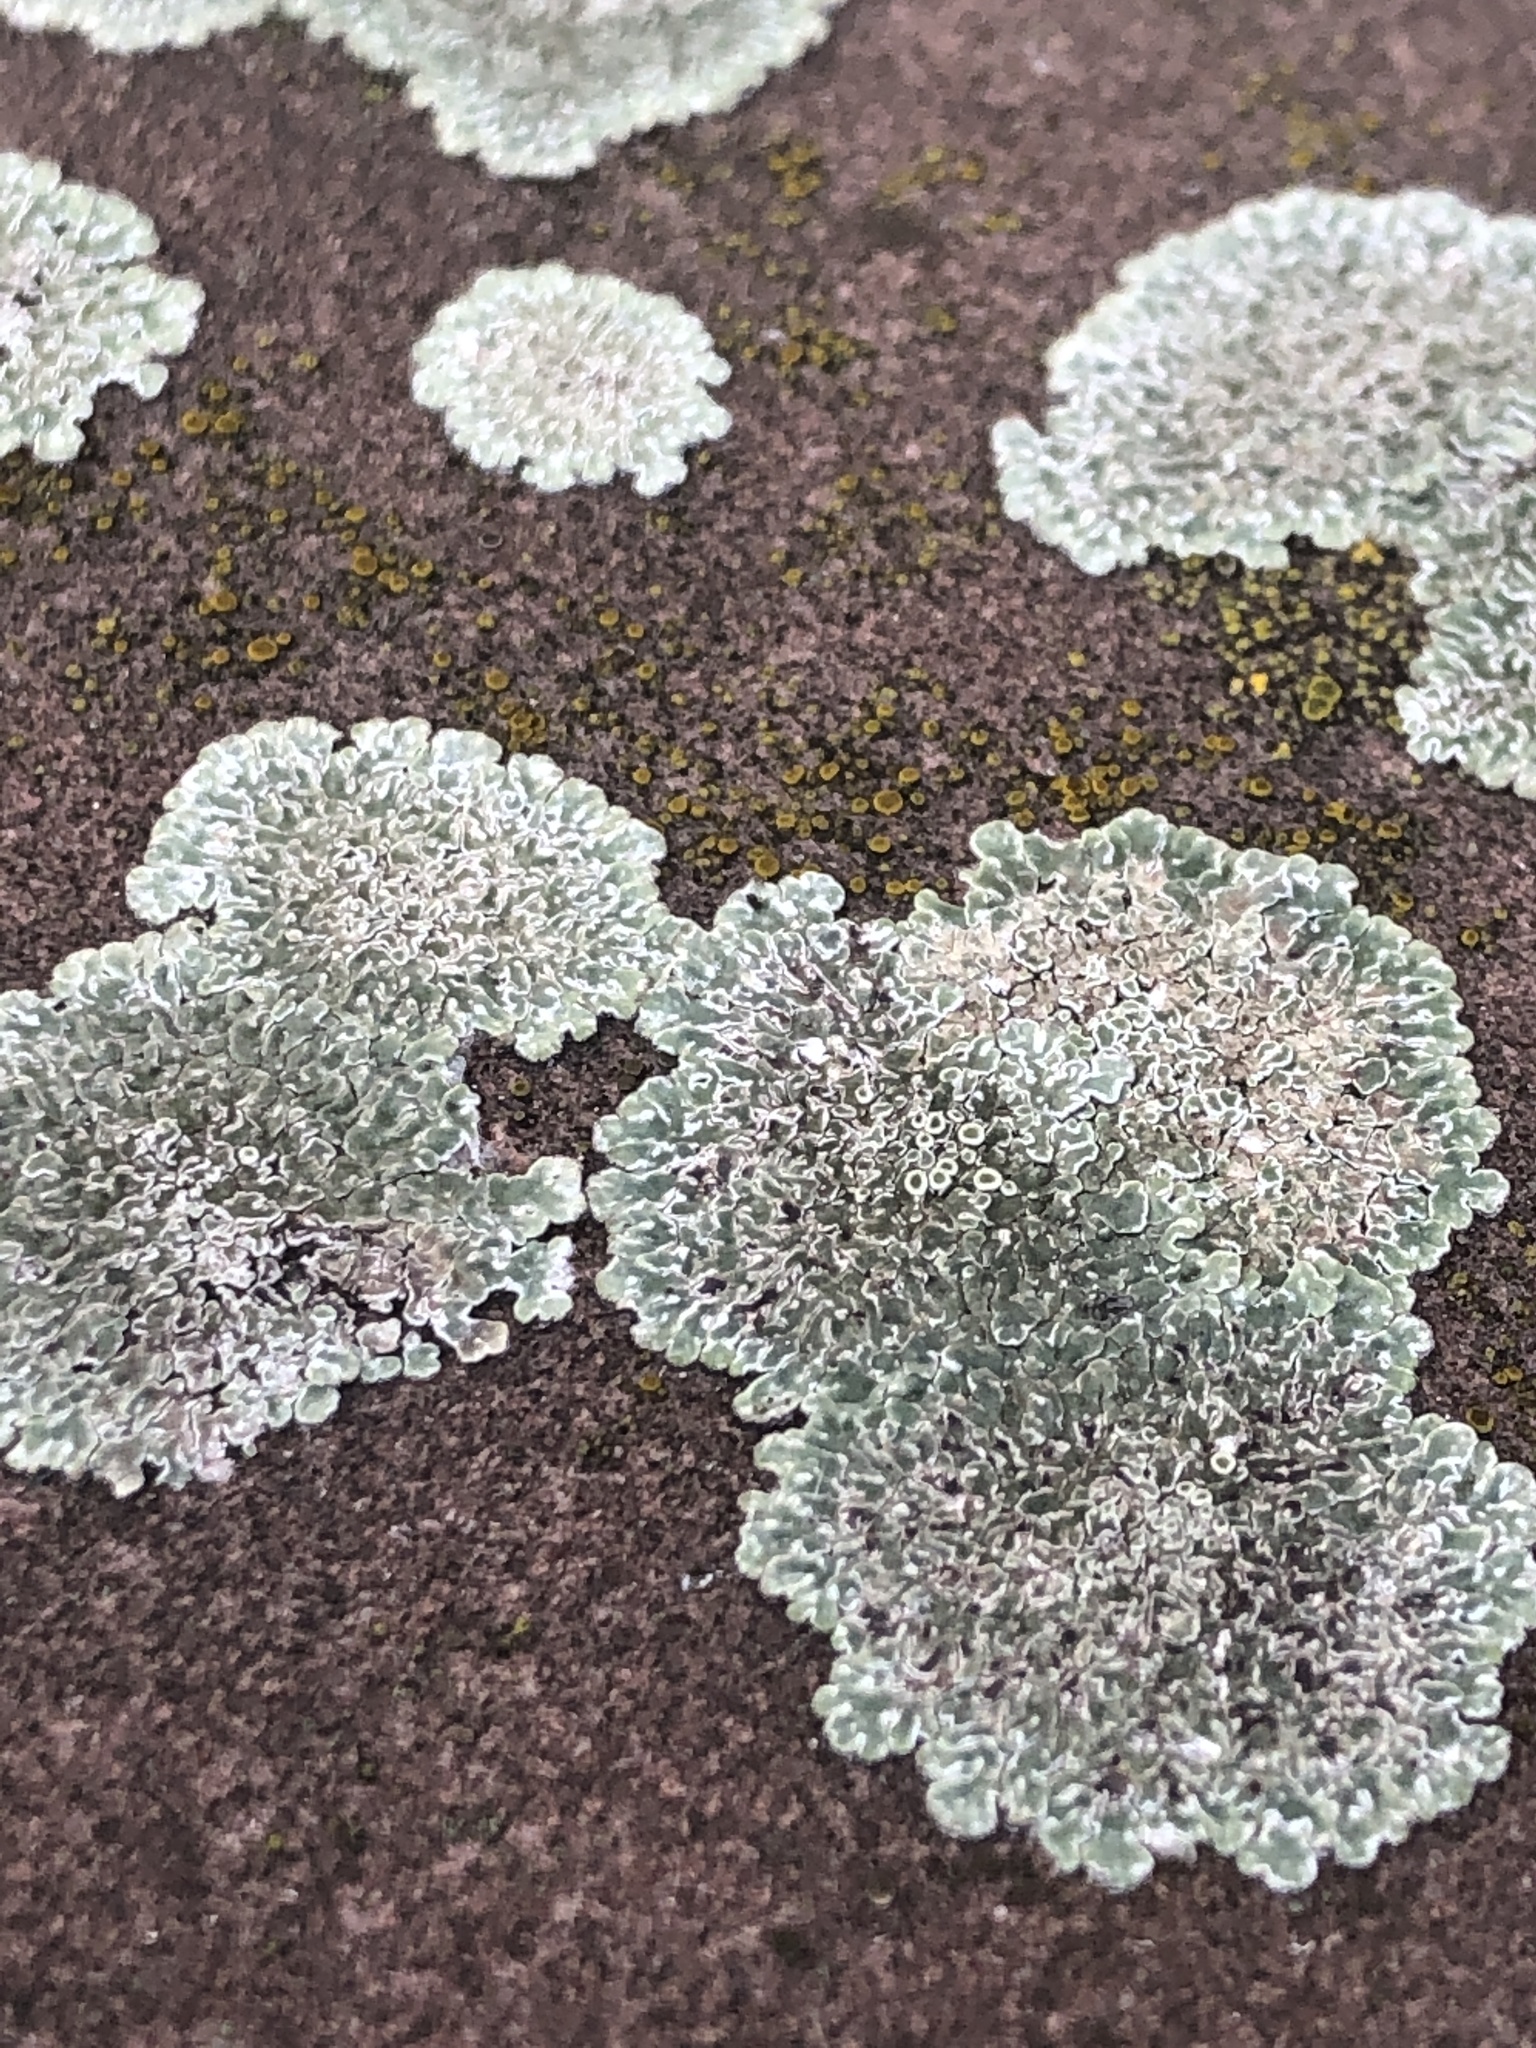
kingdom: Fungi
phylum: Ascomycota
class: Lecanoromycetes
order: Lecanorales
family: Lecanoraceae
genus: Protoparmeliopsis
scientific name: Protoparmeliopsis muralis
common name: Stonewall rim lichen
